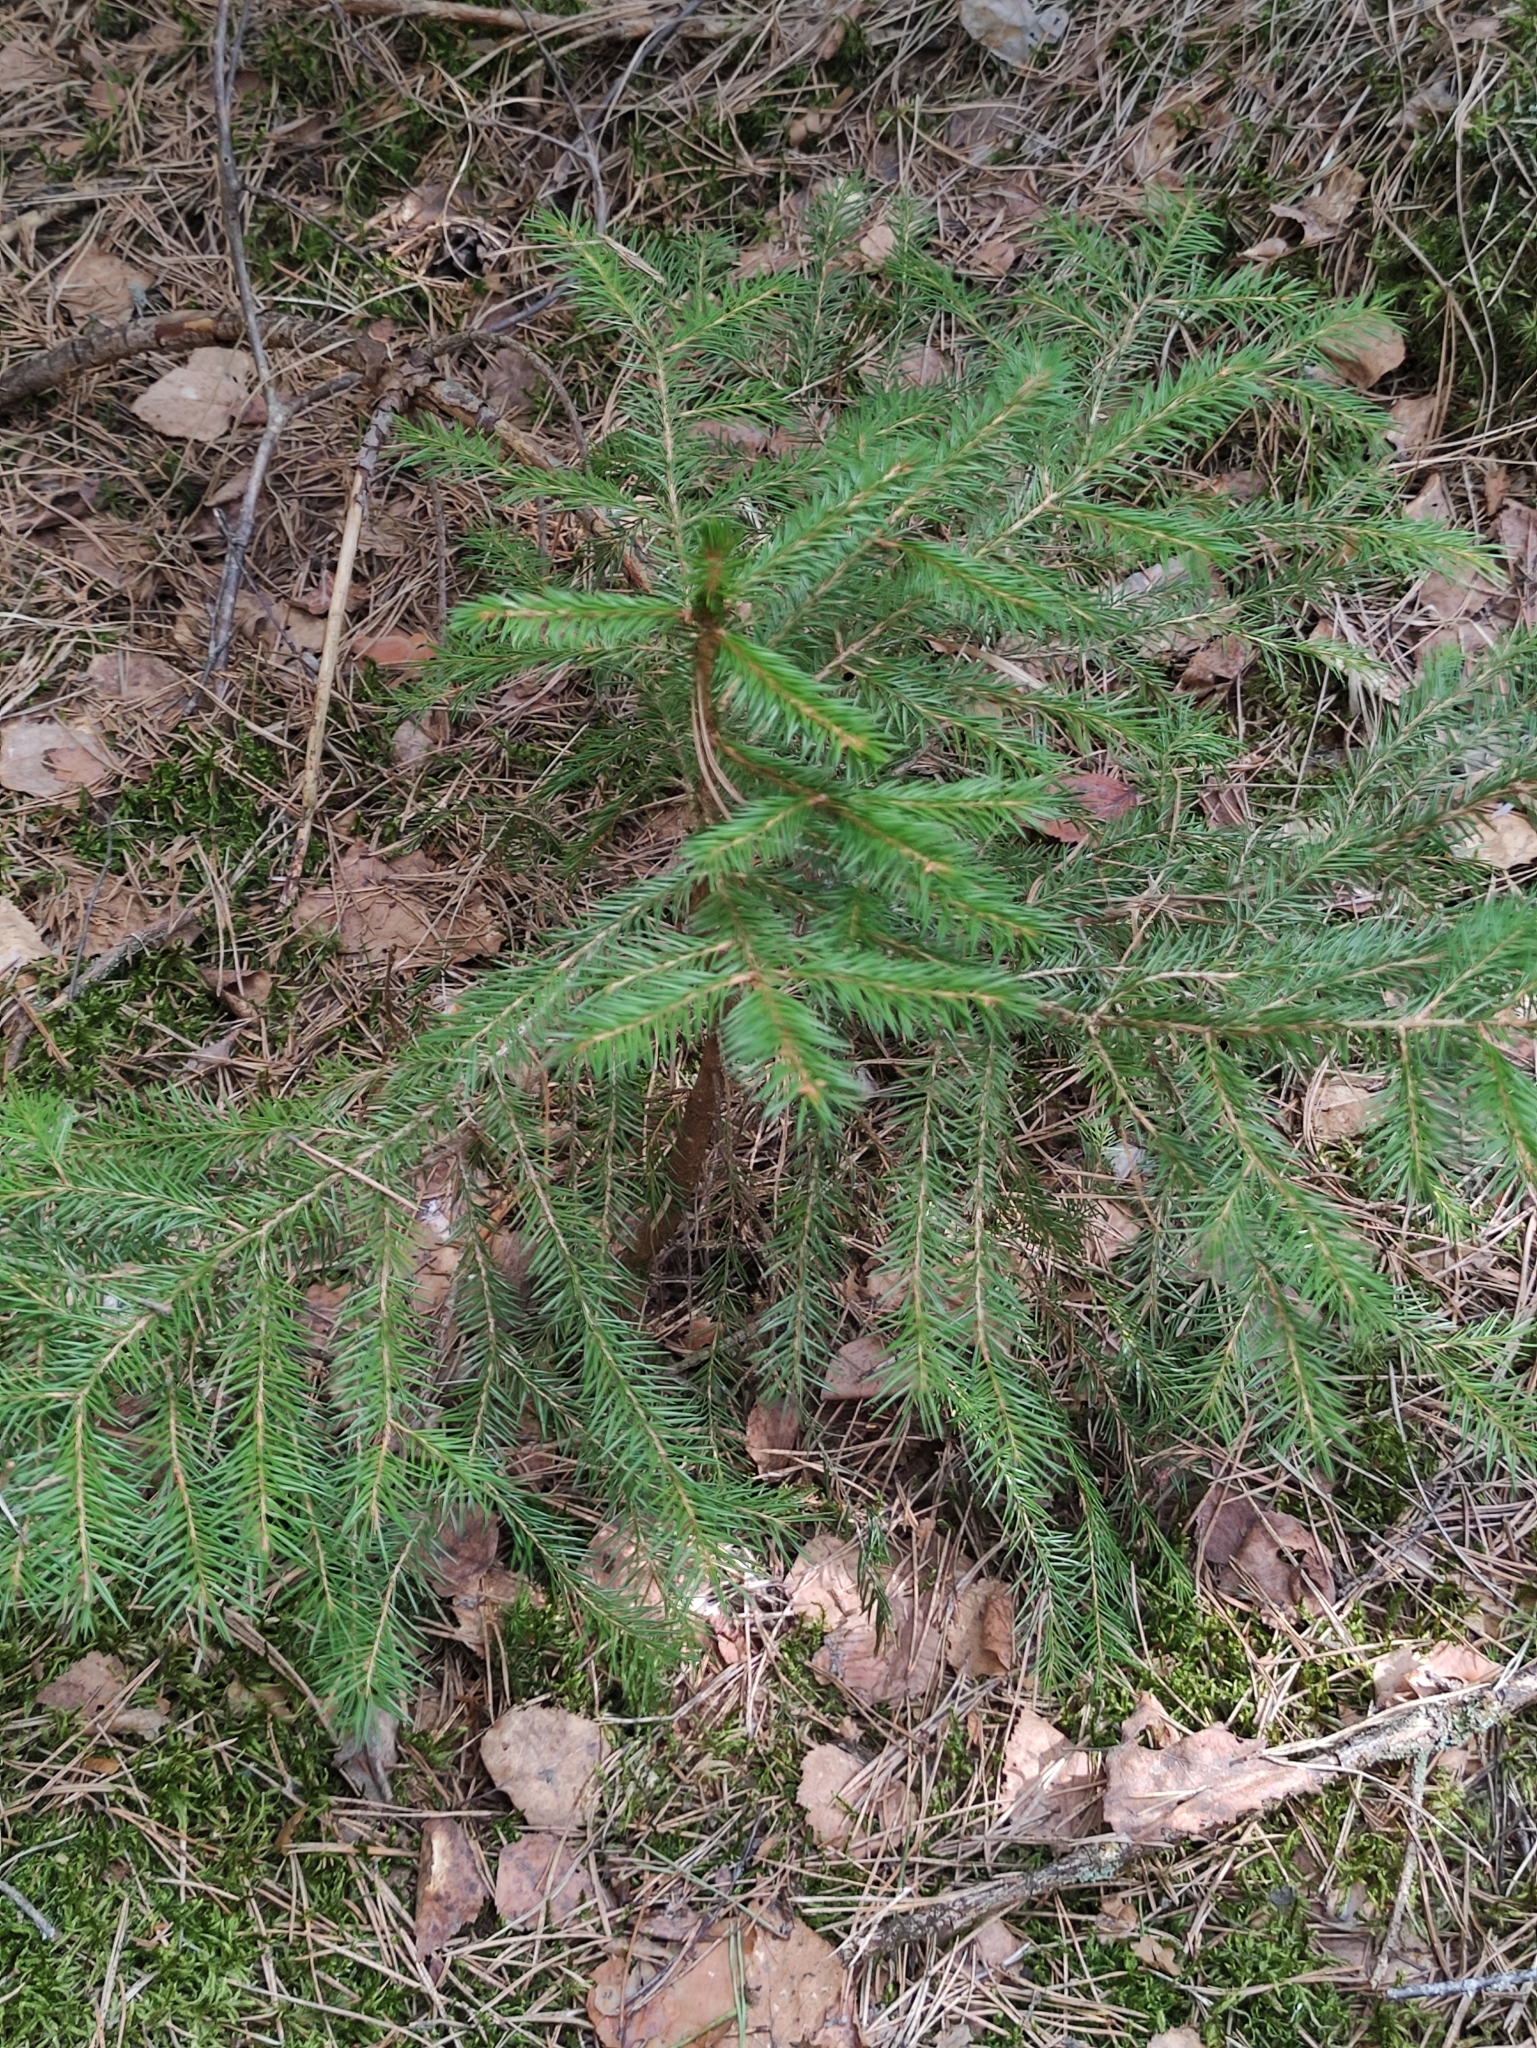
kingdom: Plantae
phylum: Tracheophyta
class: Pinopsida
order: Pinales
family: Pinaceae
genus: Picea
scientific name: Picea abies
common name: Norway spruce
